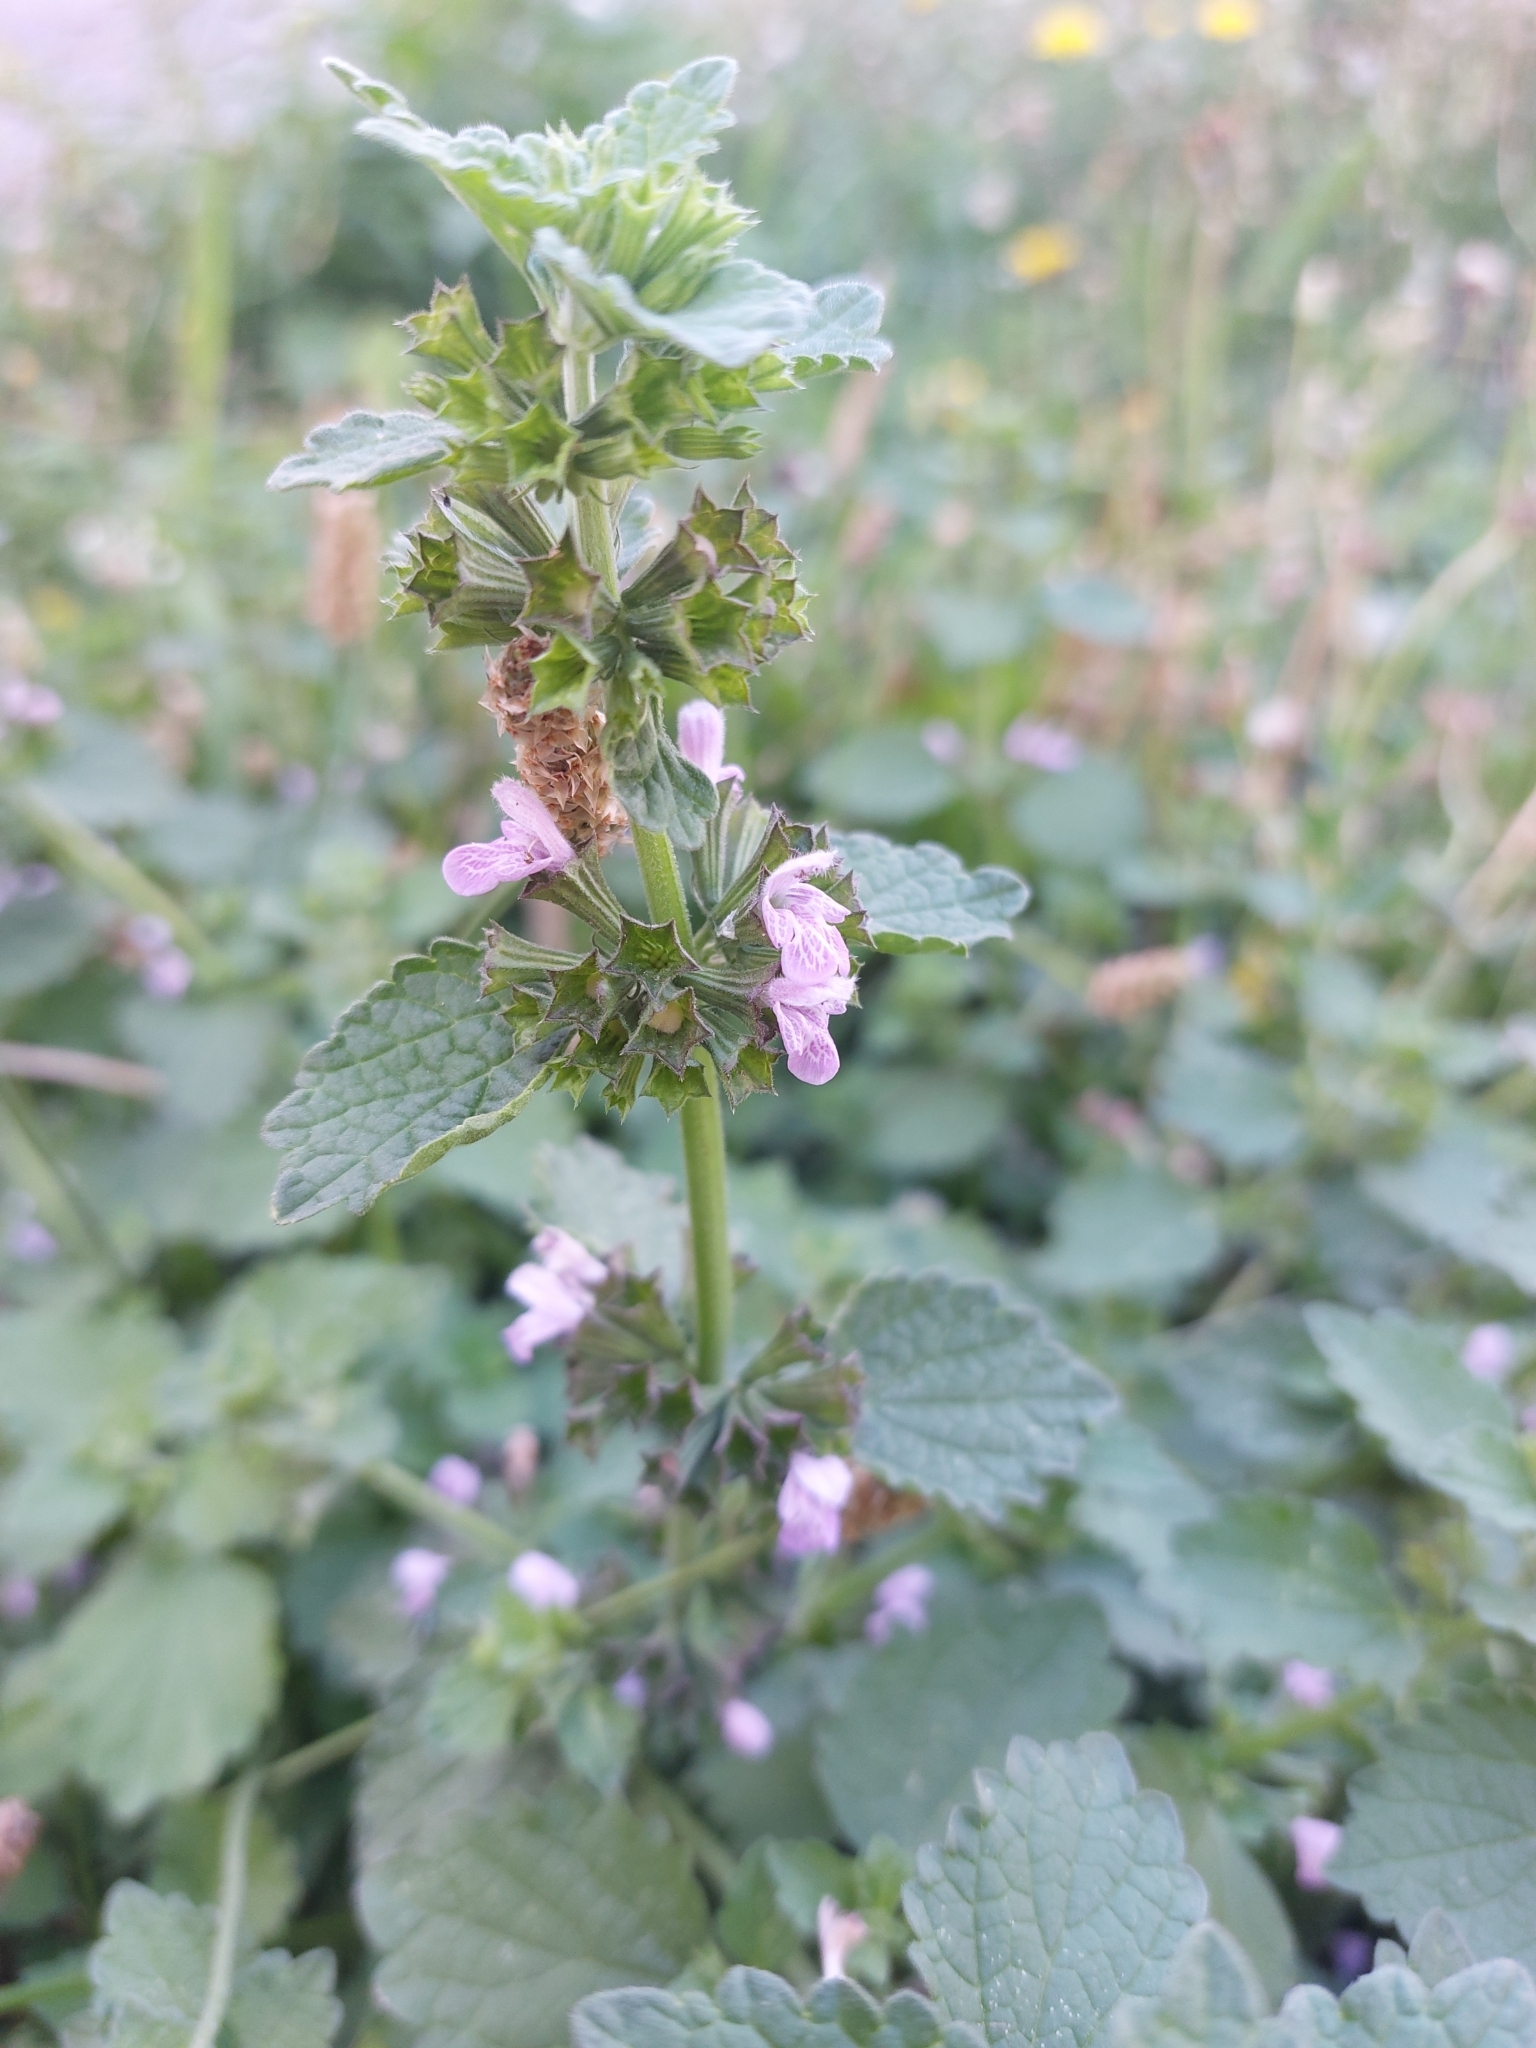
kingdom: Plantae
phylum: Tracheophyta
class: Magnoliopsida
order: Lamiales
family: Lamiaceae
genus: Ballota
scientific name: Ballota nigra
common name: Black horehound
